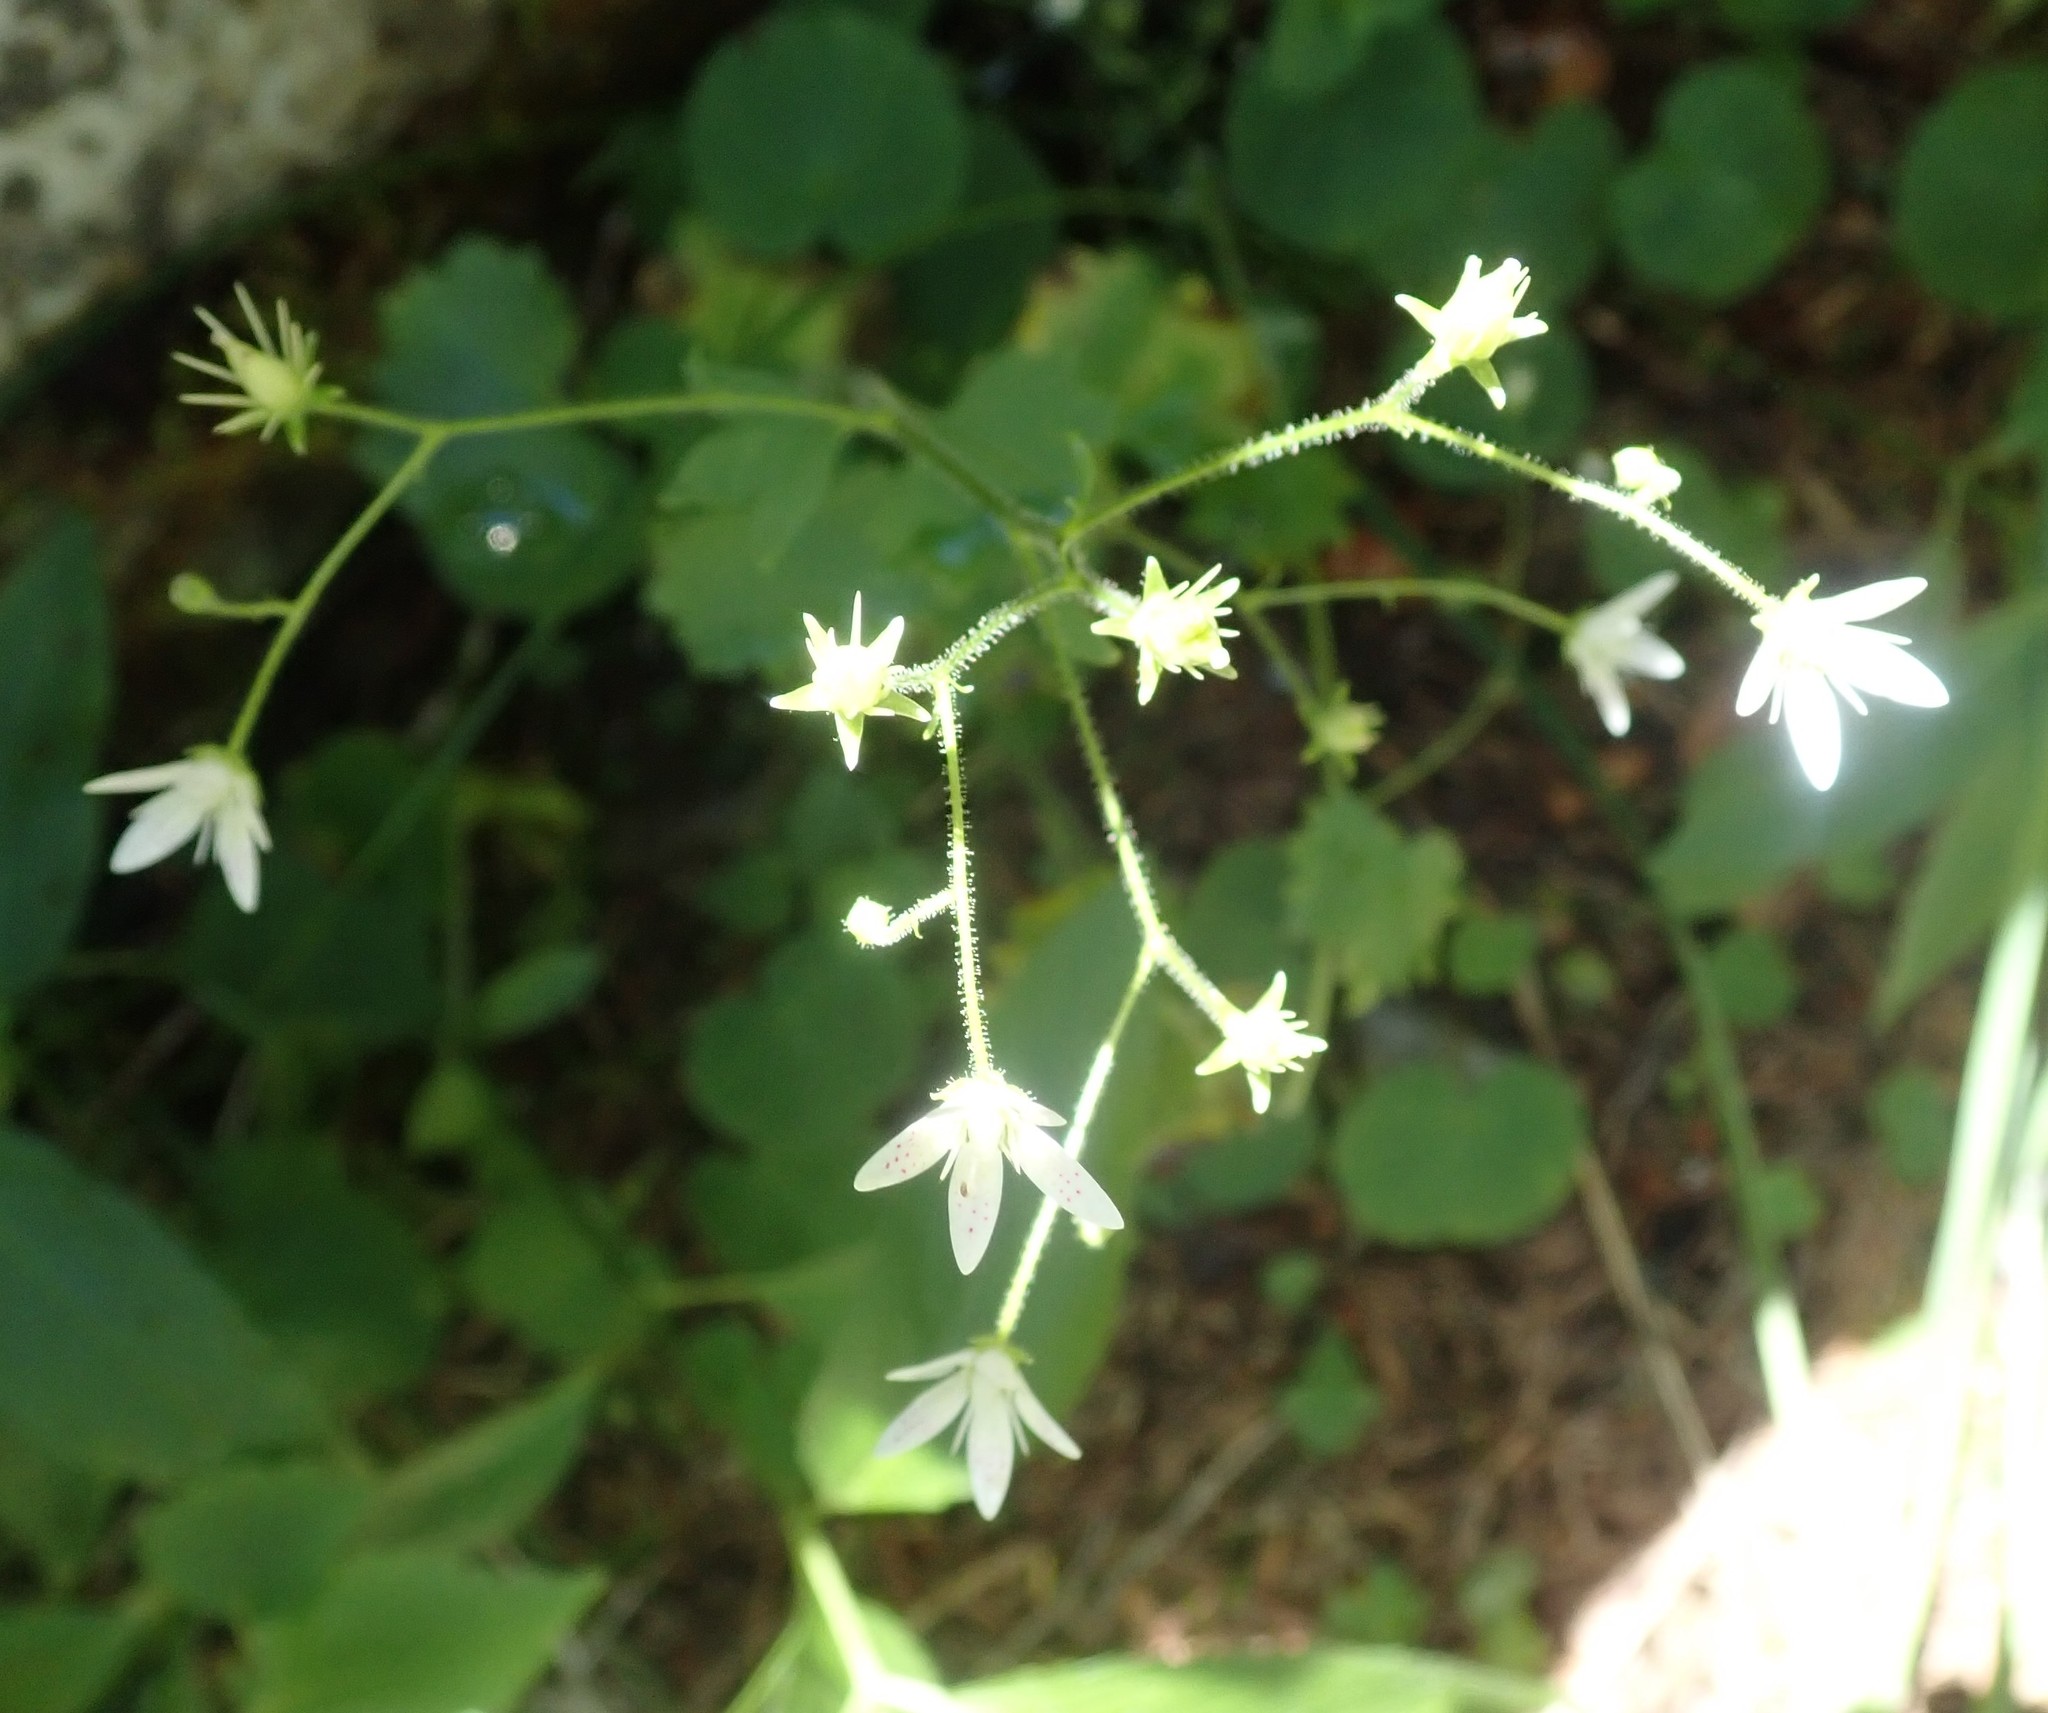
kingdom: Plantae
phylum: Tracheophyta
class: Magnoliopsida
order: Saxifragales
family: Saxifragaceae
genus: Saxifraga
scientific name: Saxifraga rotundifolia
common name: Round-leaved saxifrage
